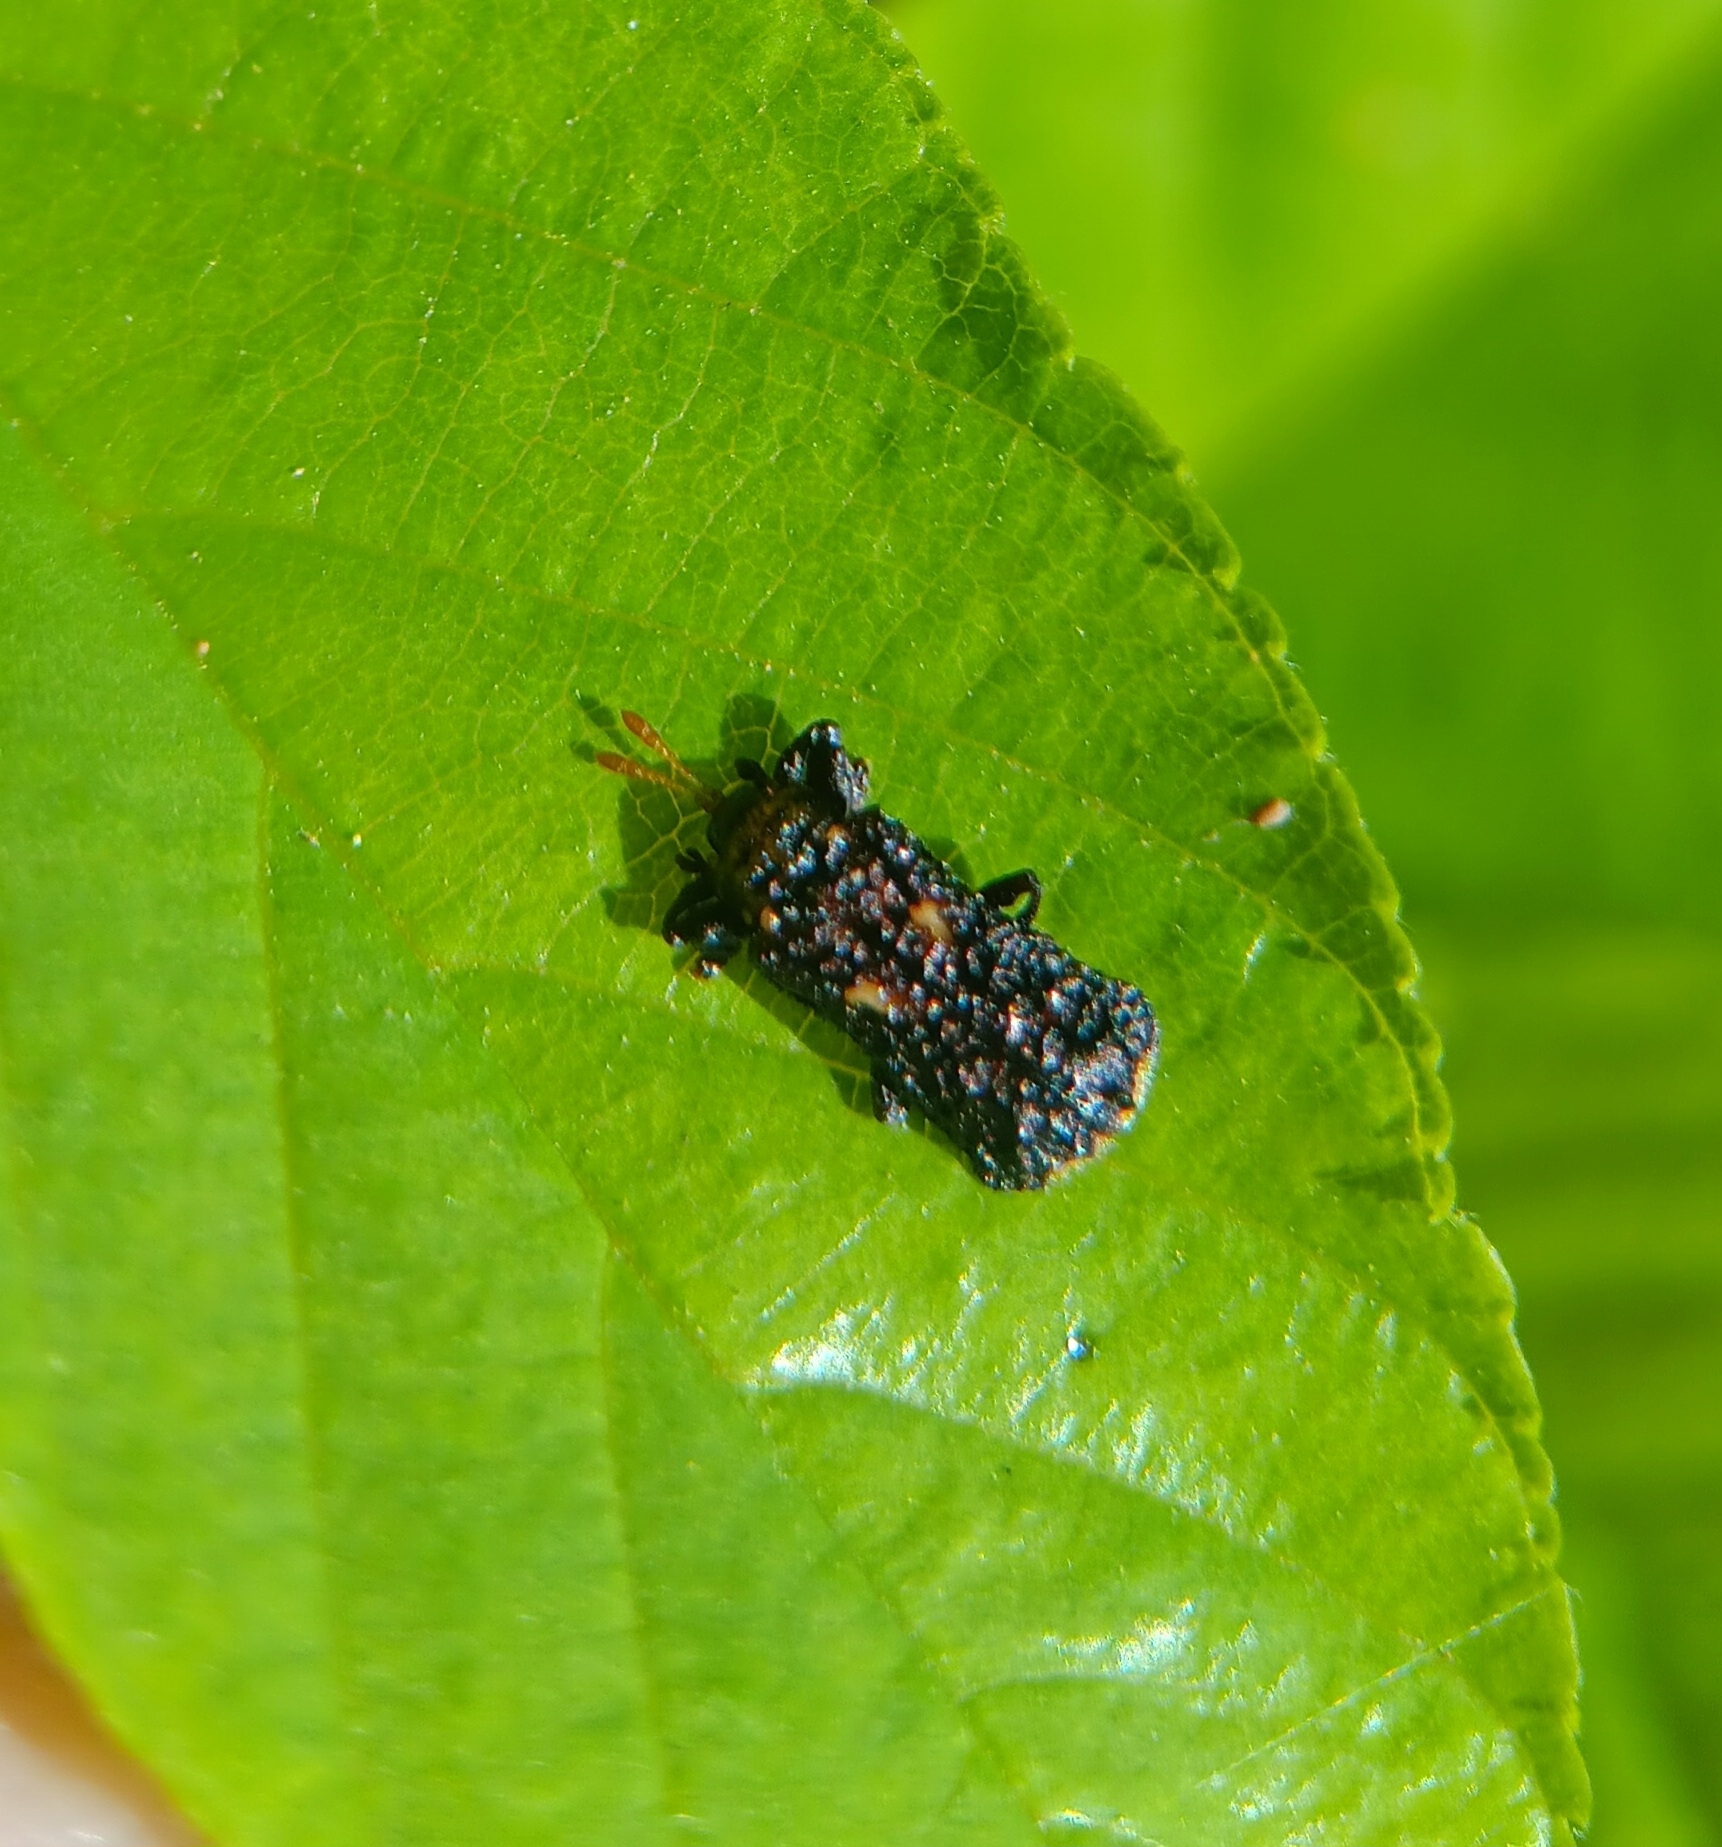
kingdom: Animalia
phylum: Arthropoda
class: Insecta
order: Coleoptera
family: Chrysomelidae
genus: Octotoma
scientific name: Octotoma marginicollis
